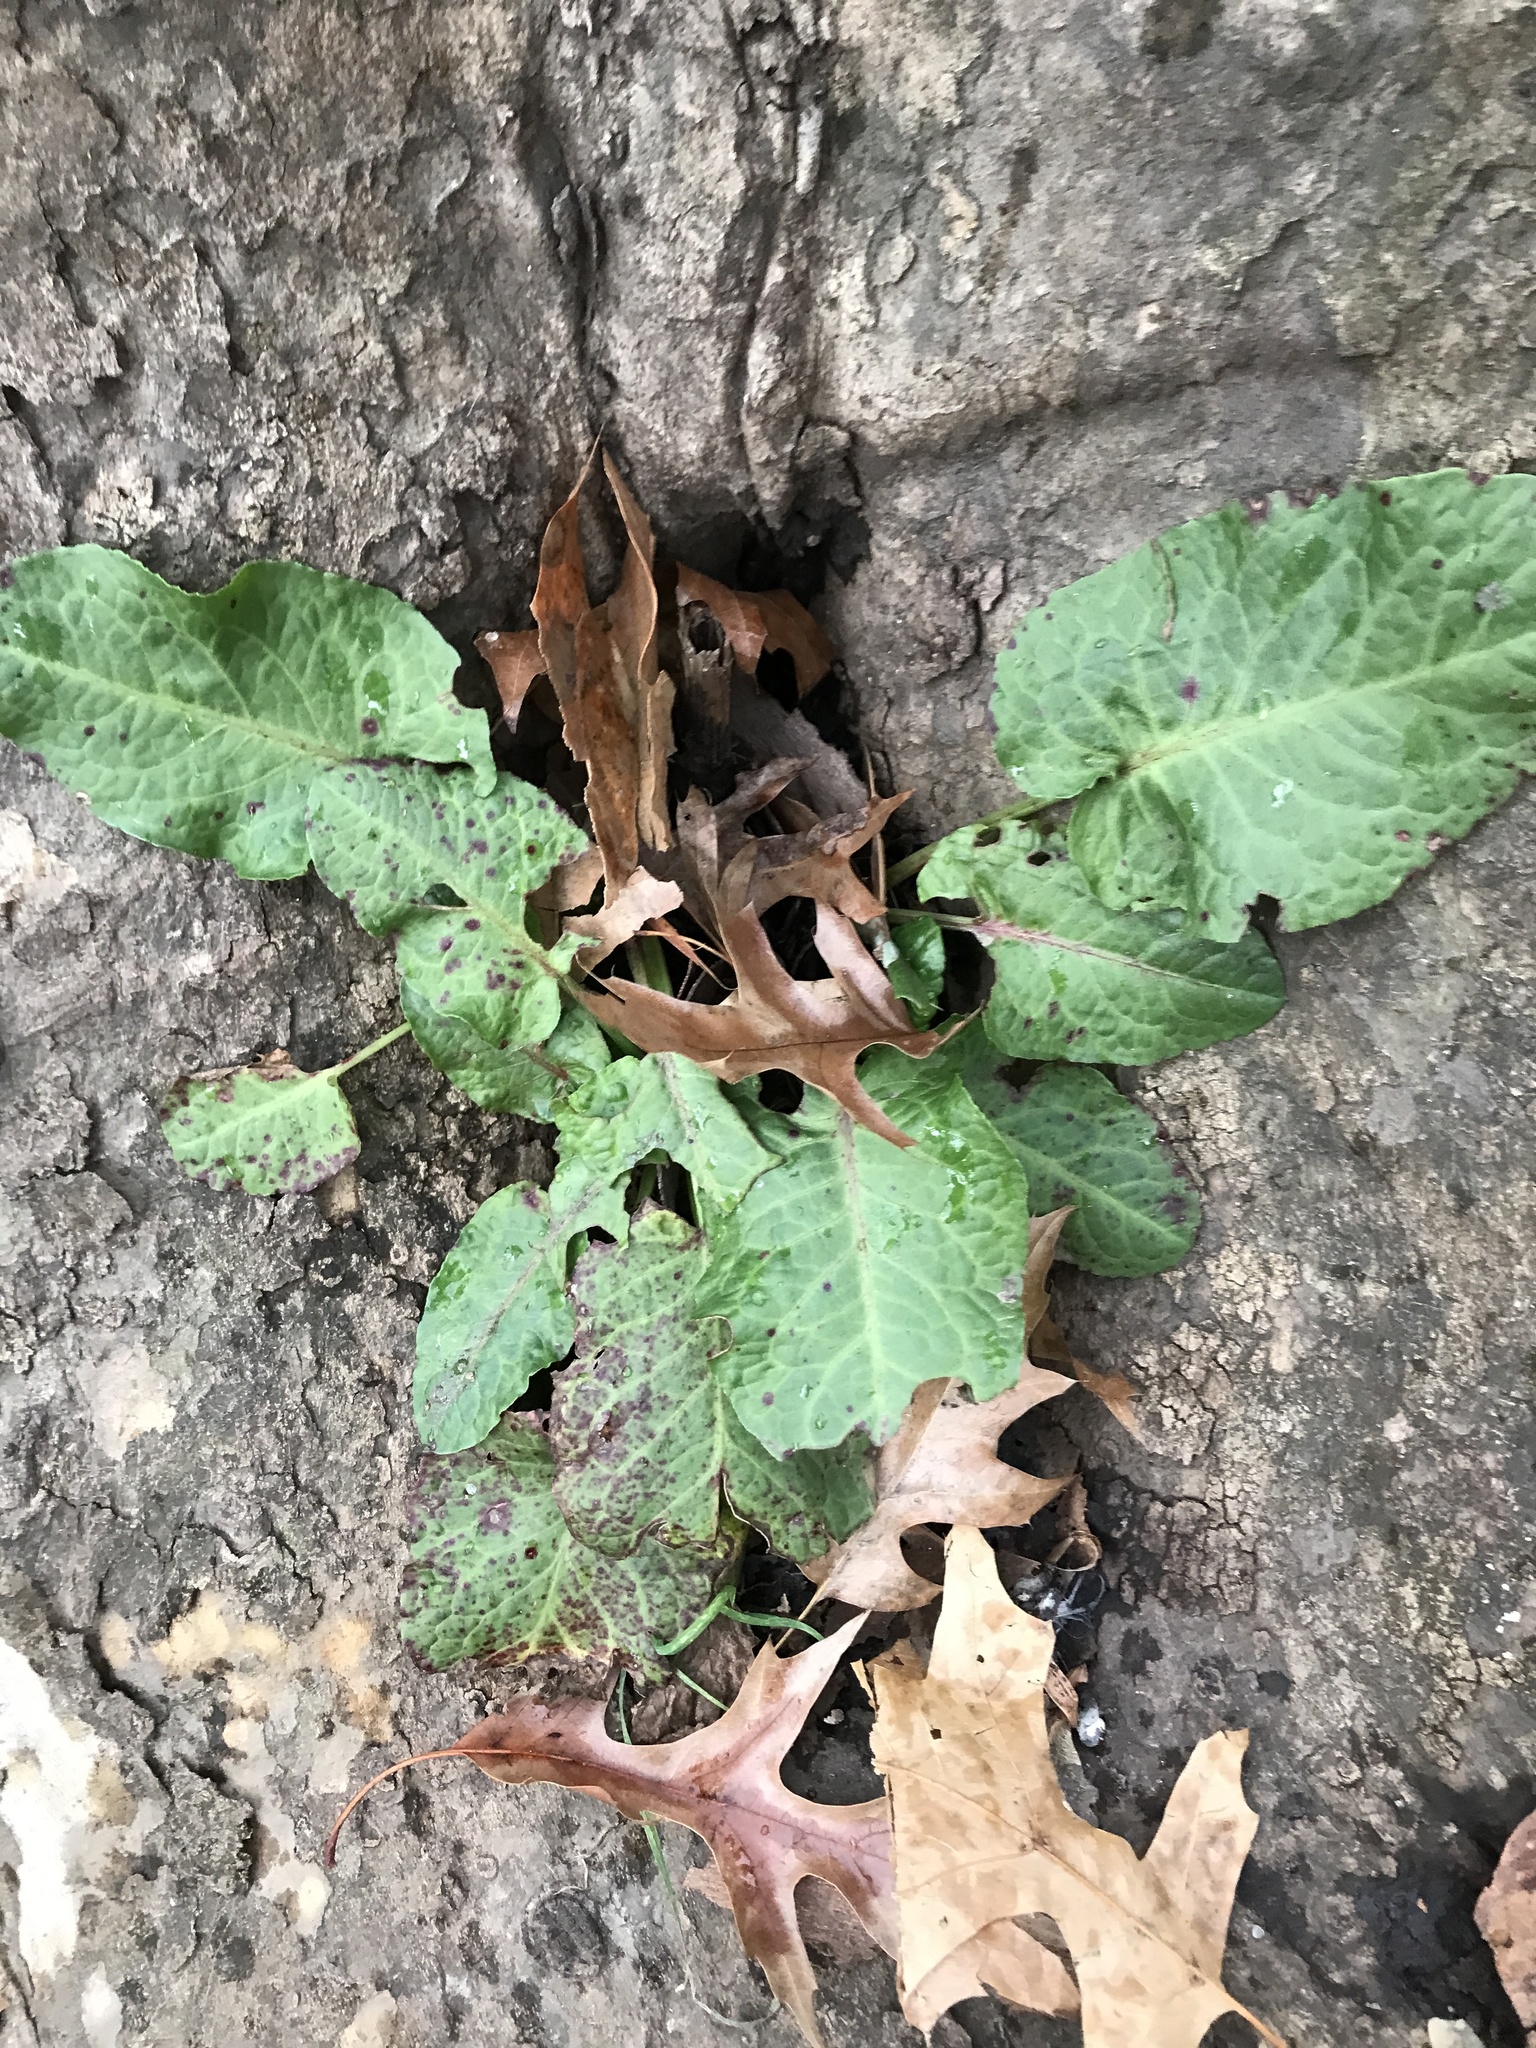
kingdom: Plantae
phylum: Tracheophyta
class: Magnoliopsida
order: Caryophyllales
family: Polygonaceae
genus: Rumex
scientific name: Rumex obtusifolius
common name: Bitter dock
